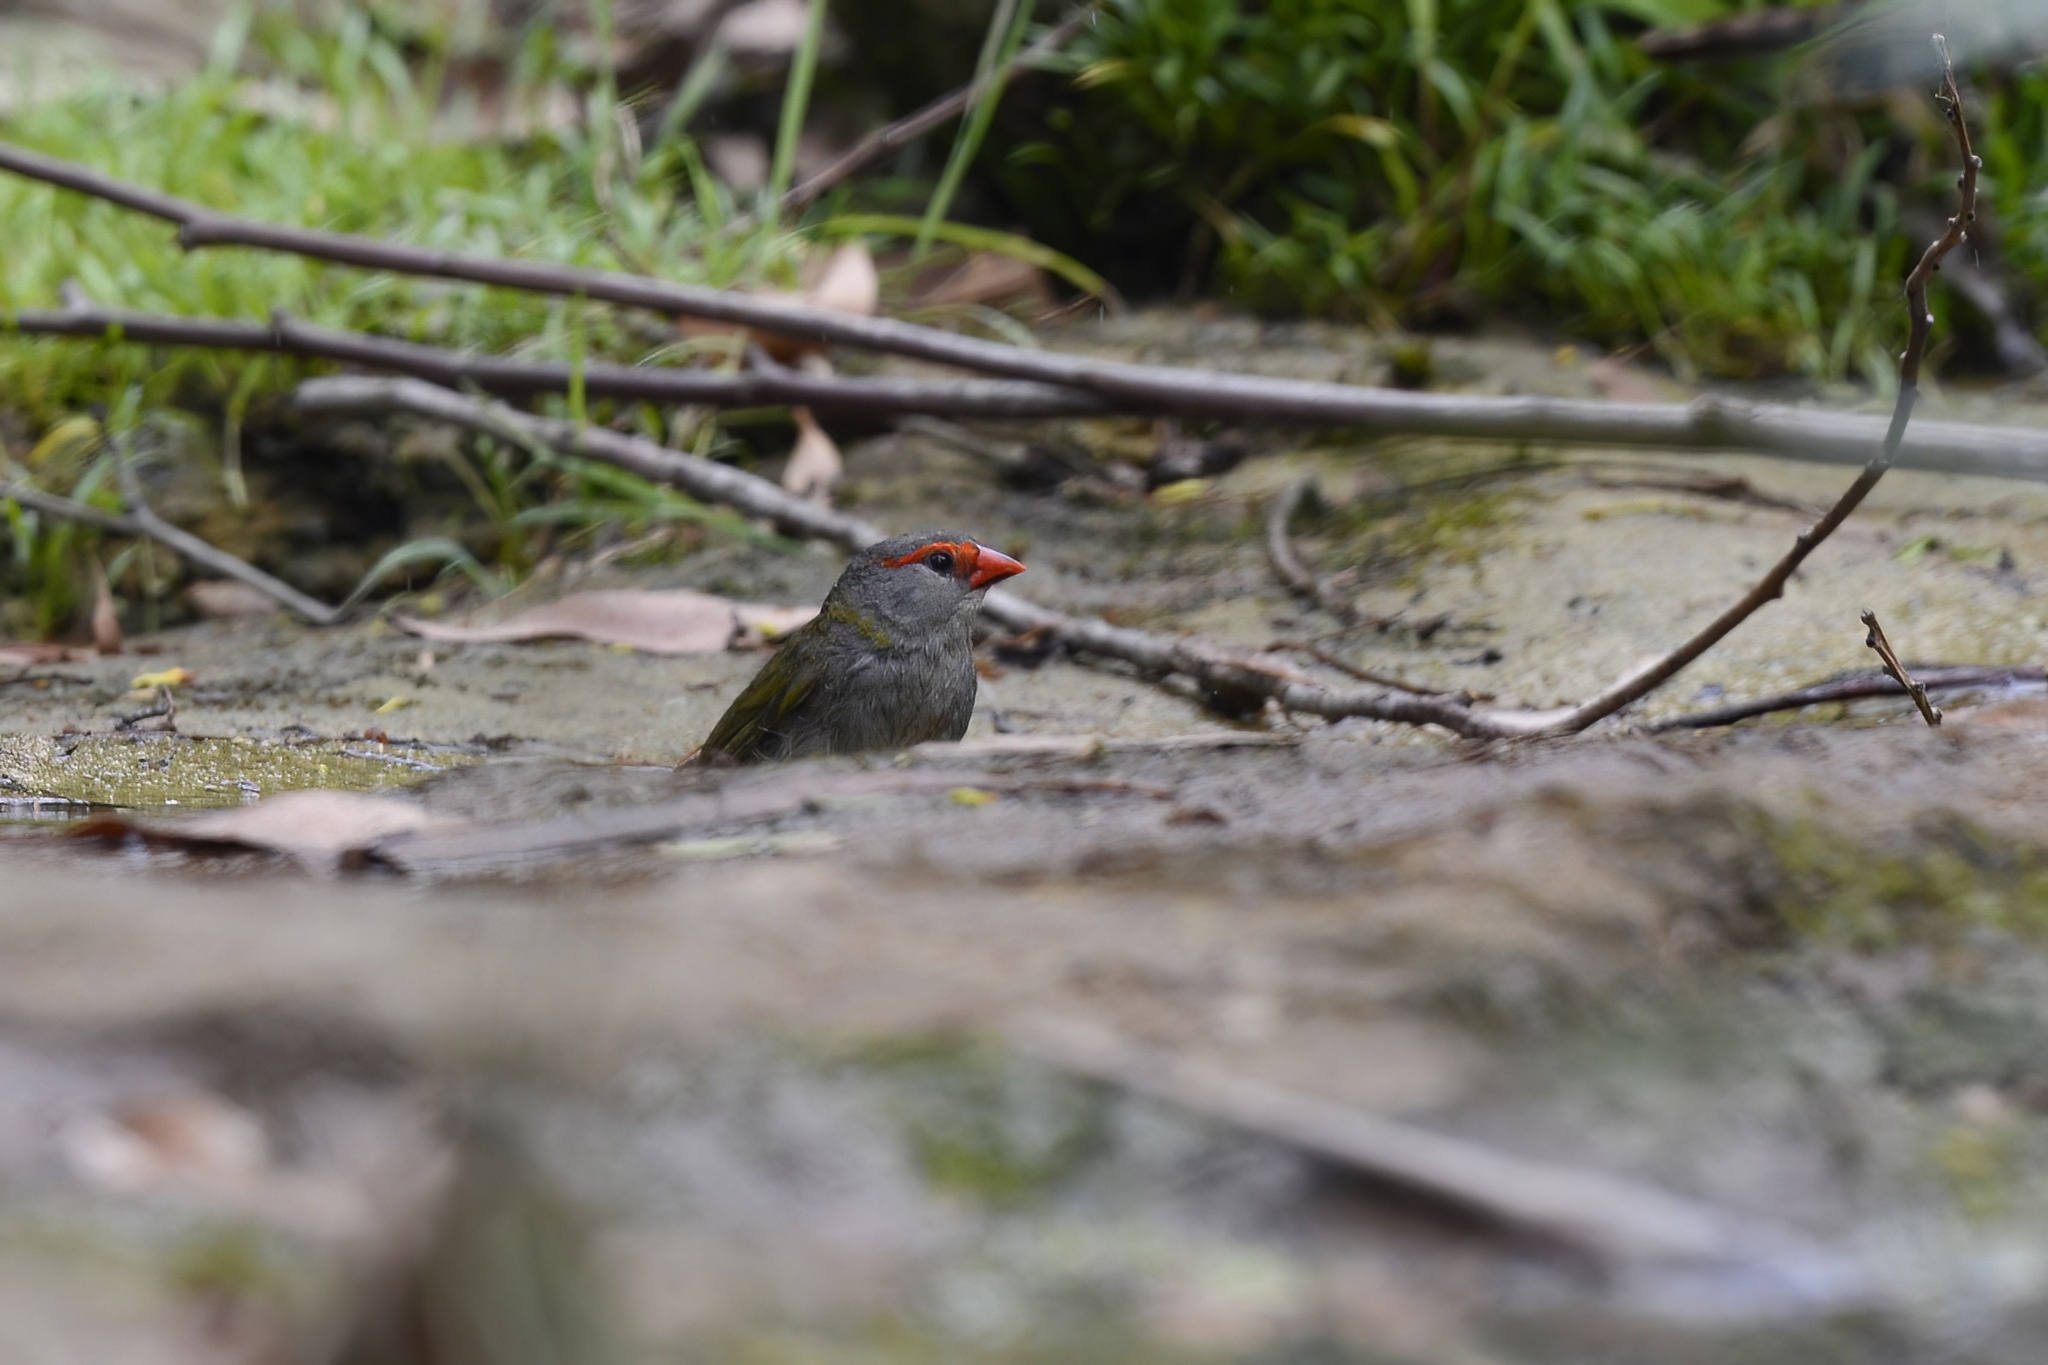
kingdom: Animalia
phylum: Chordata
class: Aves
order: Passeriformes
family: Estrildidae
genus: Neochmia
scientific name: Neochmia temporalis
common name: Red-browed finch
